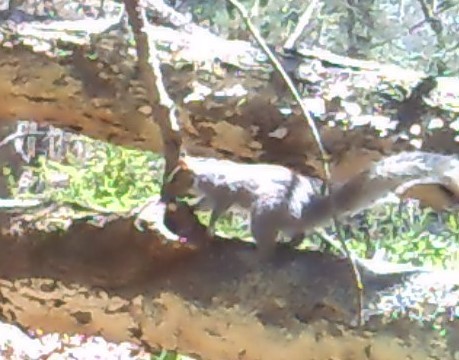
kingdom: Animalia
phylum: Chordata
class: Mammalia
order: Rodentia
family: Sciuridae
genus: Sciurus
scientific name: Sciurus carolinensis
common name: Eastern gray squirrel
